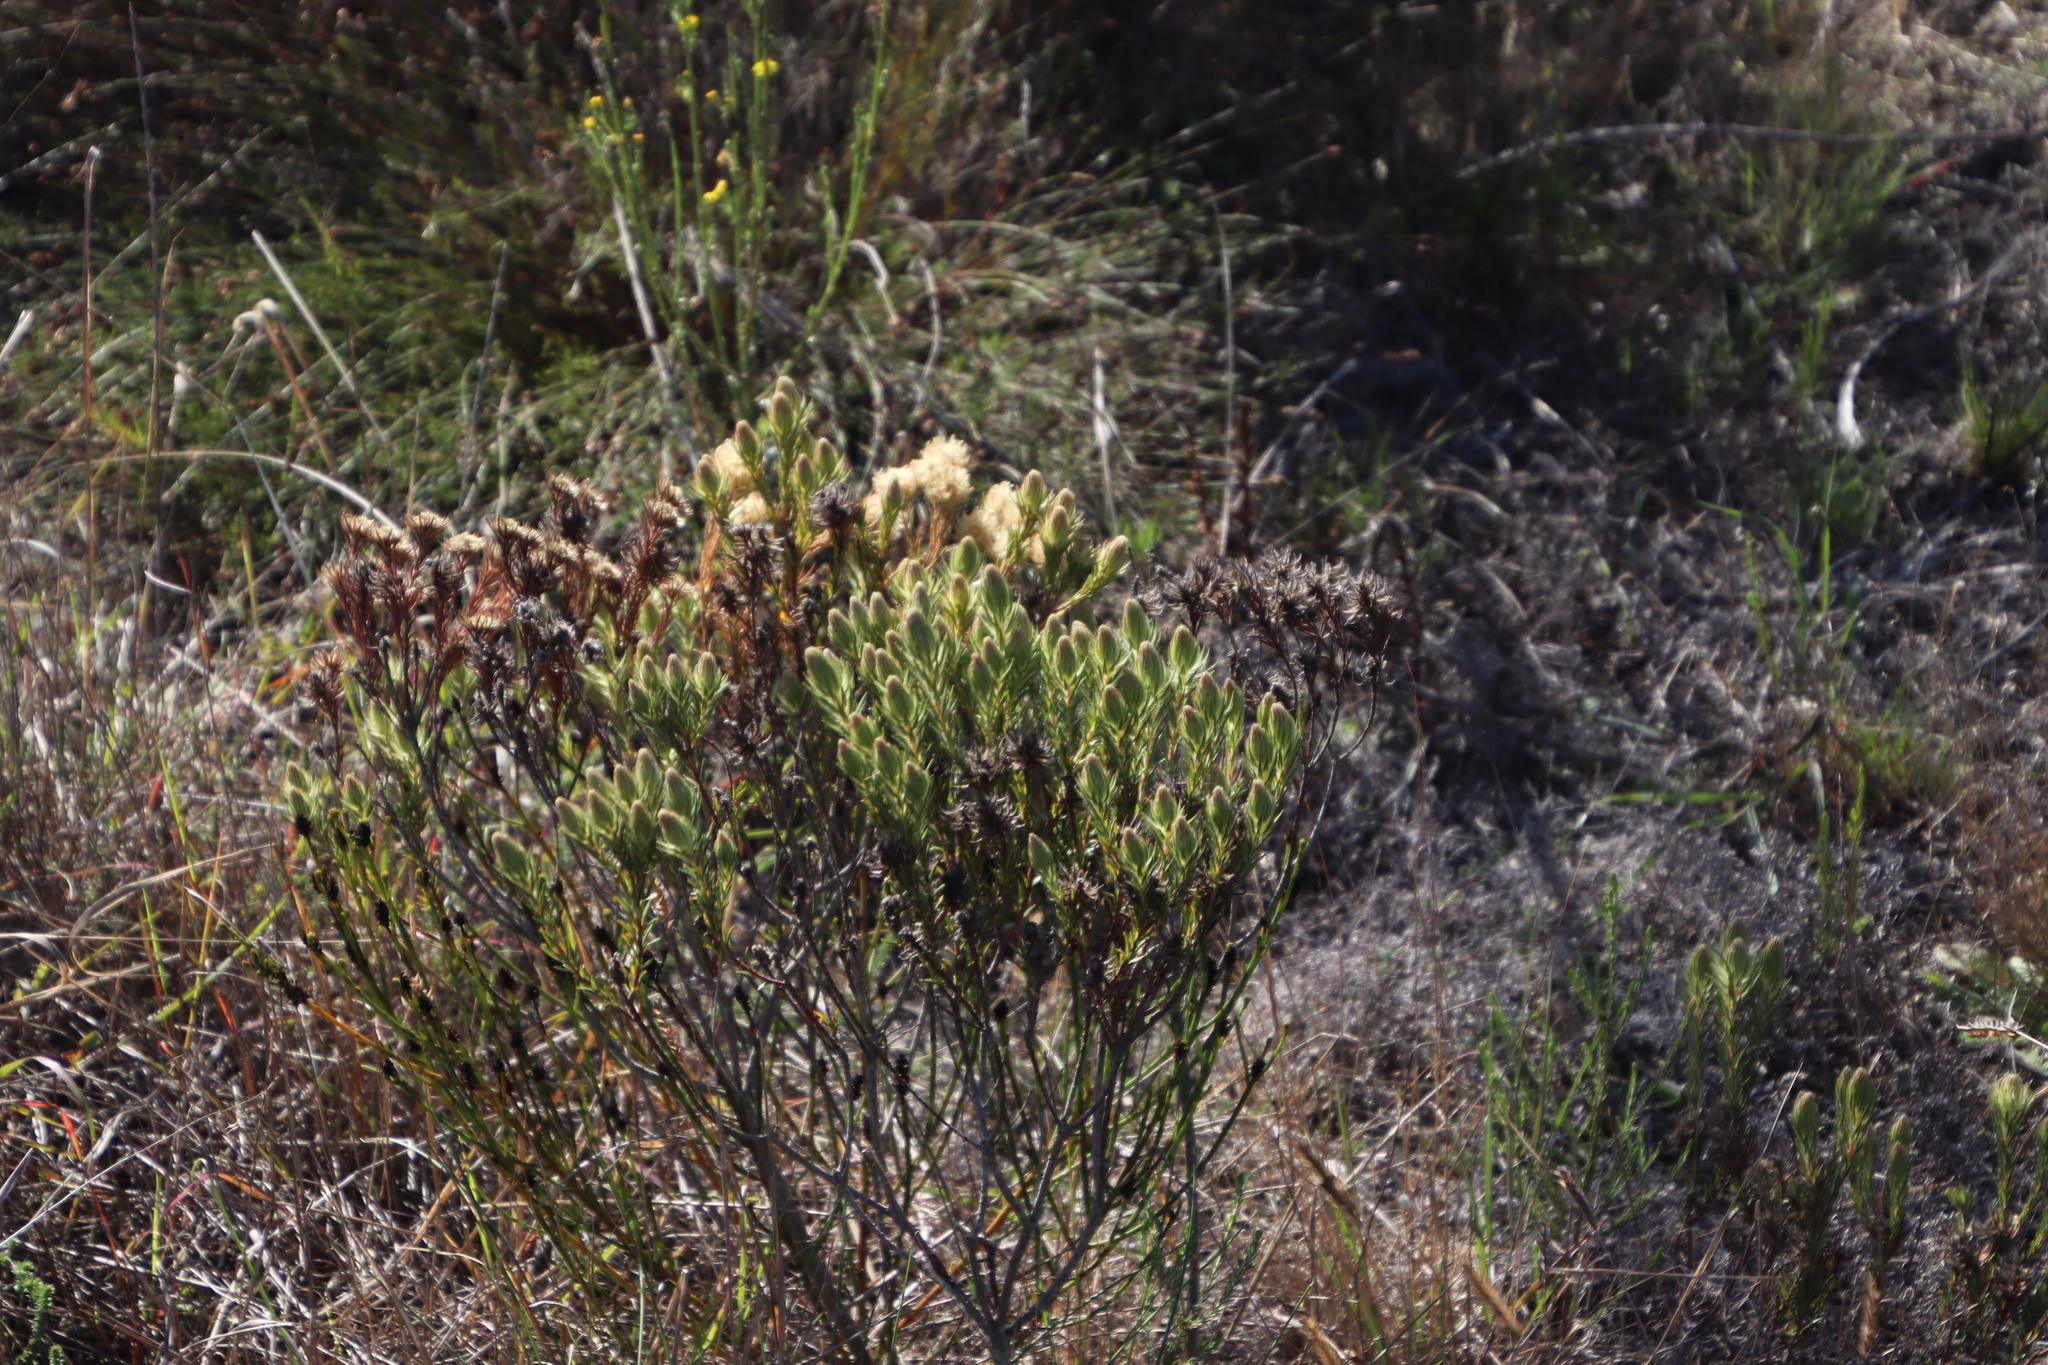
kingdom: Plantae
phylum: Tracheophyta
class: Magnoliopsida
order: Rosales
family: Rhamnaceae
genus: Phylica
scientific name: Phylica pubescens
